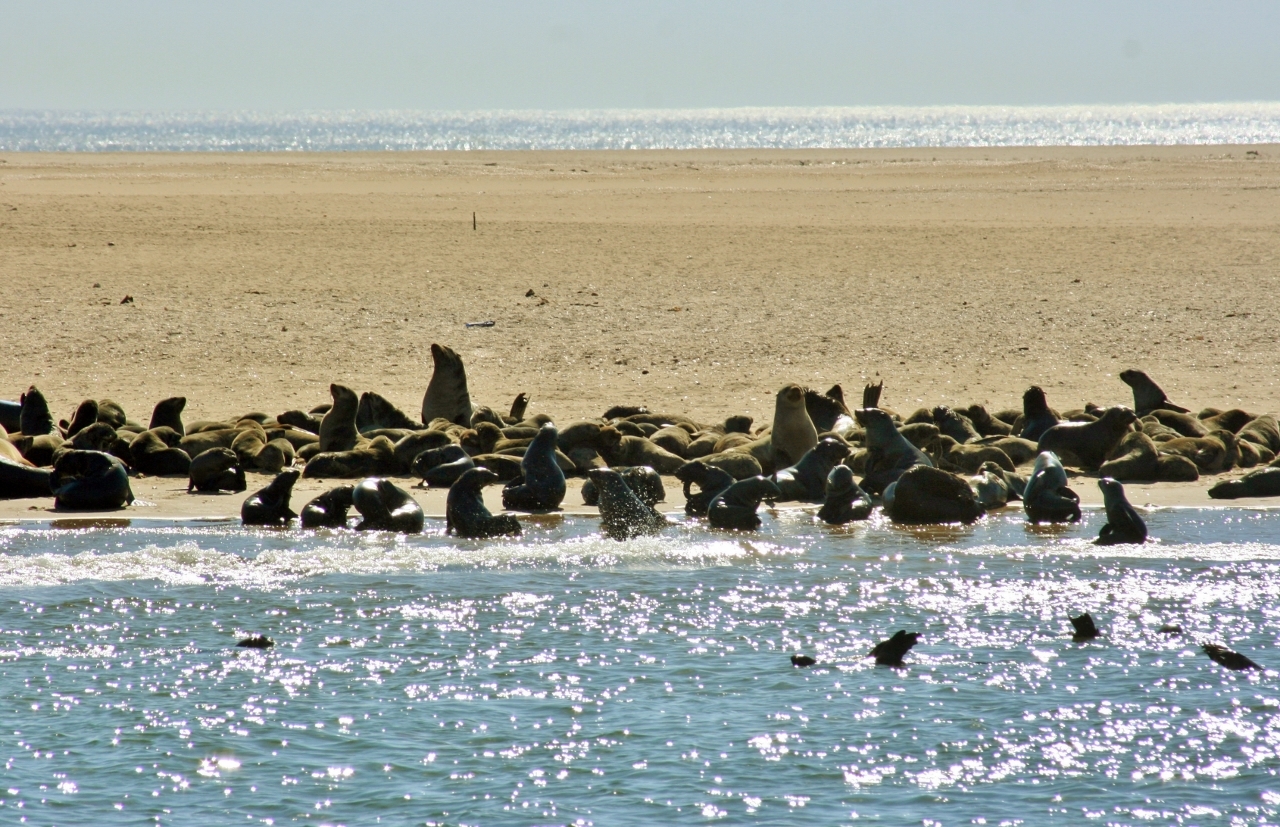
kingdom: Animalia
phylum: Chordata
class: Mammalia
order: Carnivora
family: Otariidae
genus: Arctocephalus
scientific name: Arctocephalus pusillus
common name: Brown fur seal
